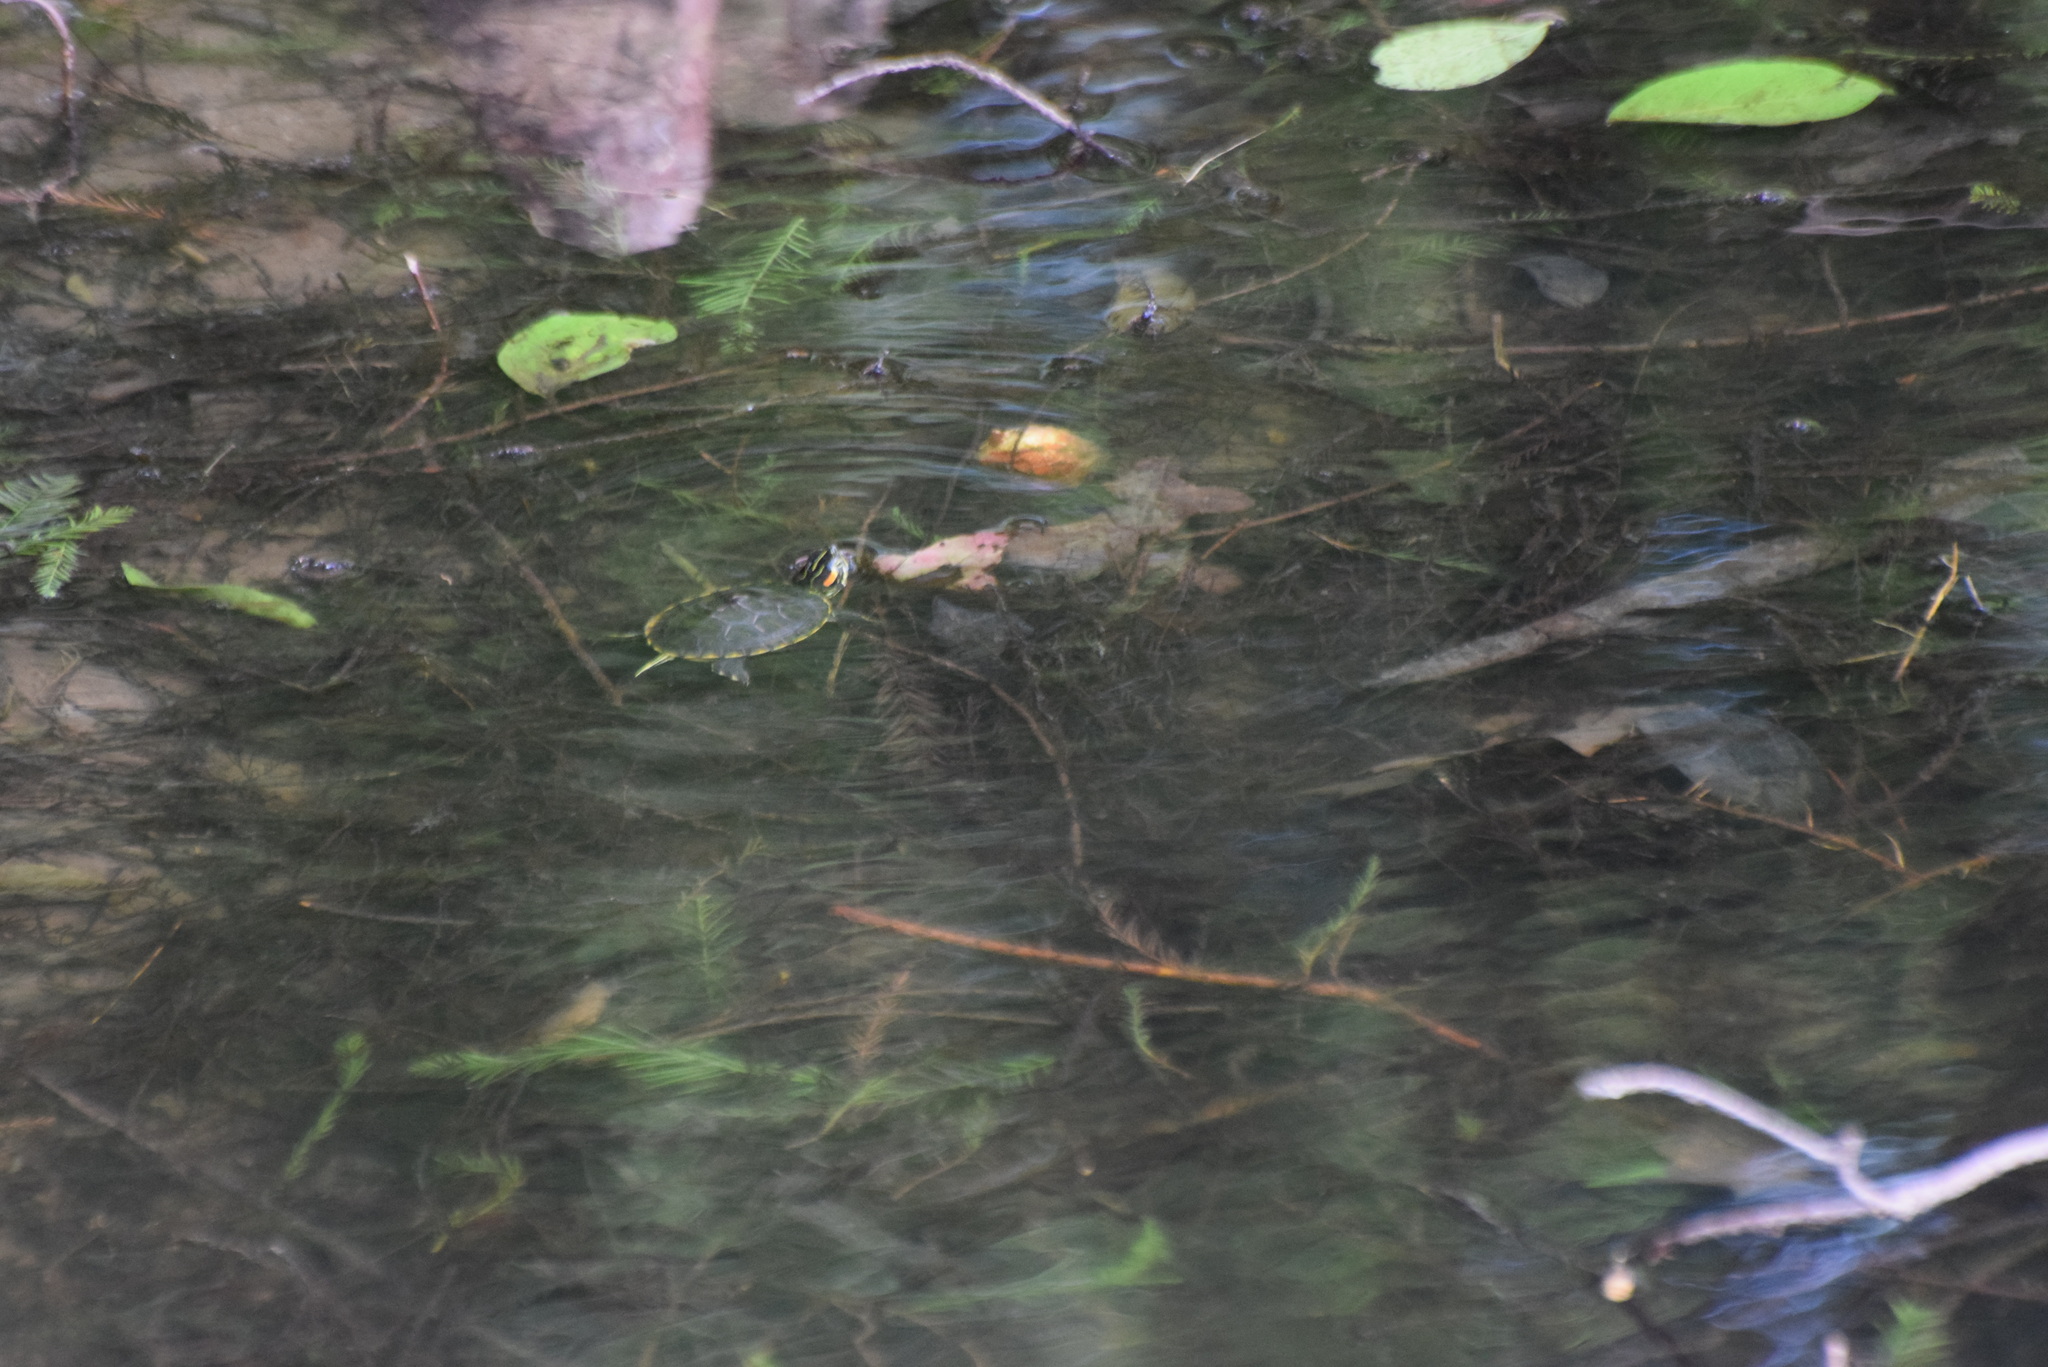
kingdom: Animalia
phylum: Chordata
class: Testudines
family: Emydidae
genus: Trachemys
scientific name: Trachemys scripta
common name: Slider
